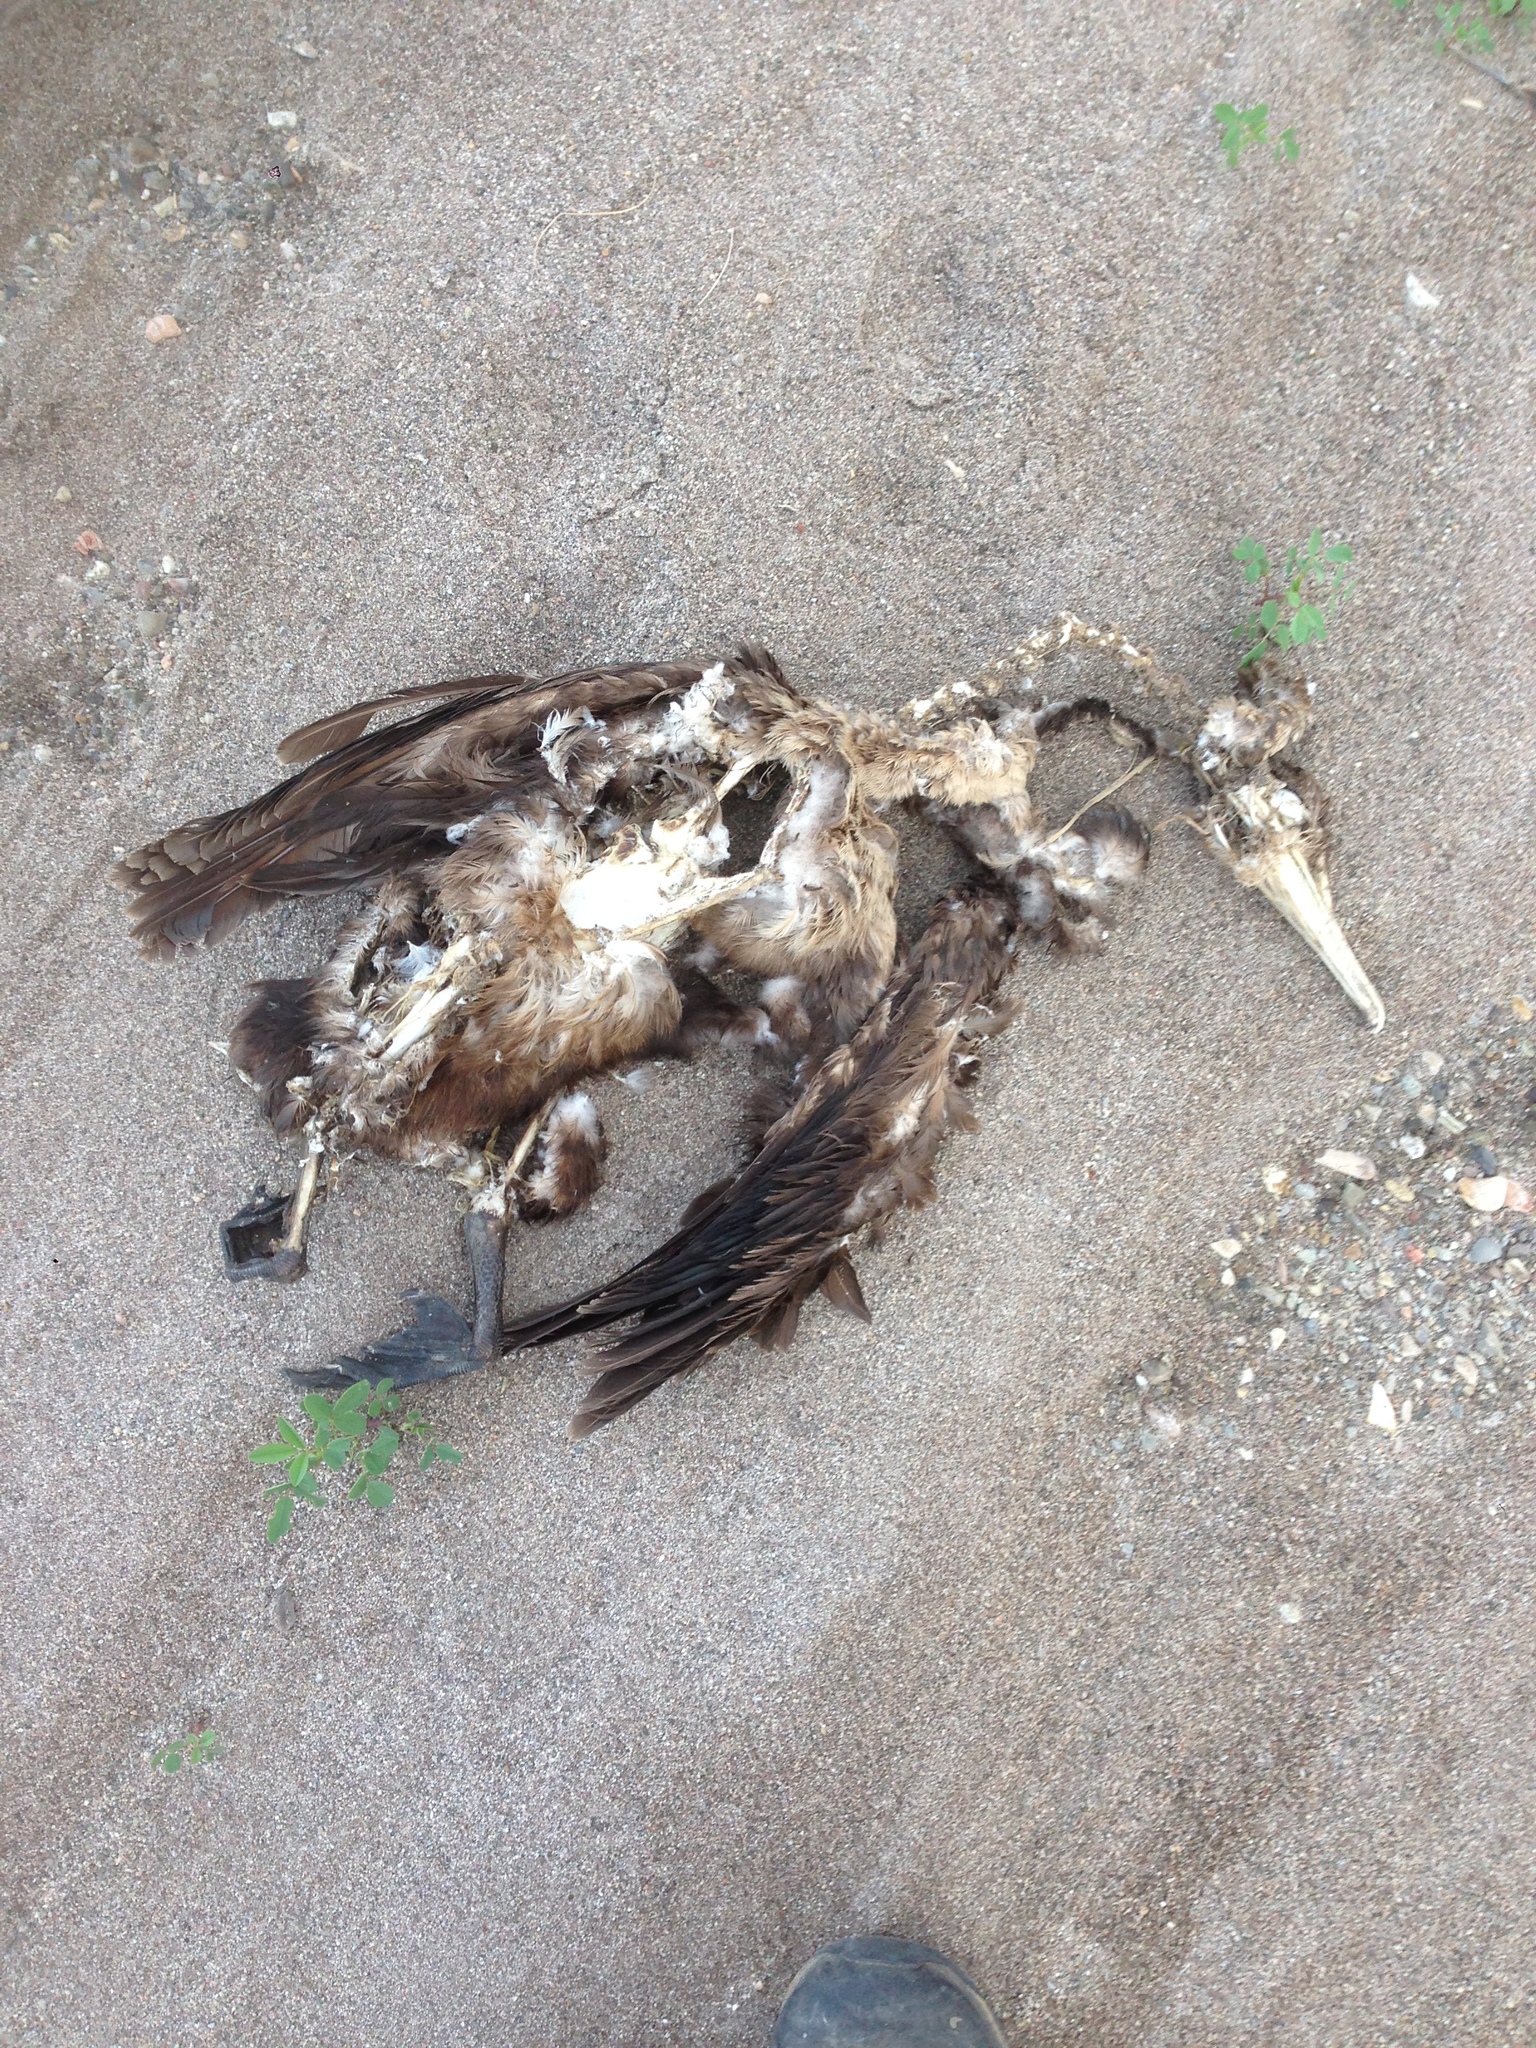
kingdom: Animalia
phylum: Chordata
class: Aves
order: Suliformes
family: Phalacrocoracidae
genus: Phalacrocorax
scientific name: Phalacrocorax auritus
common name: Double-crested cormorant
